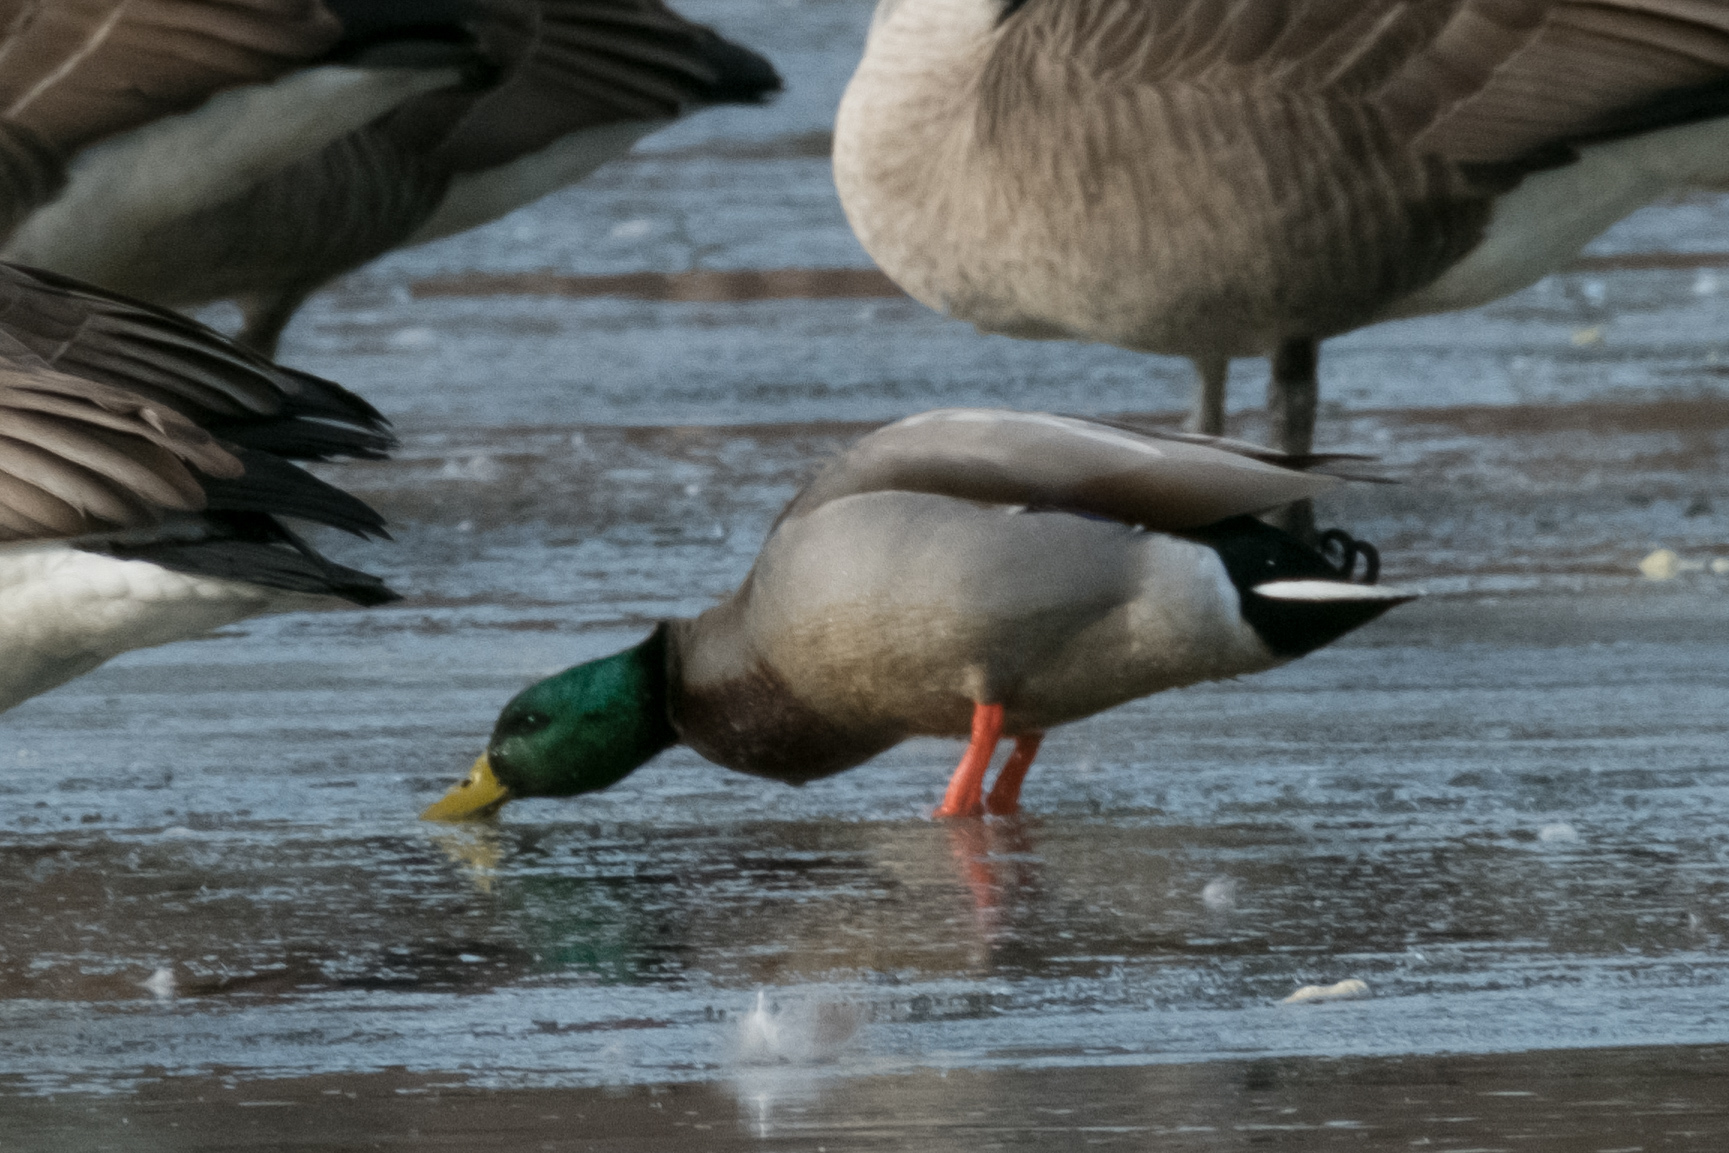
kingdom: Animalia
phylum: Chordata
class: Aves
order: Anseriformes
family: Anatidae
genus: Anas
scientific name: Anas platyrhynchos
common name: Mallard
